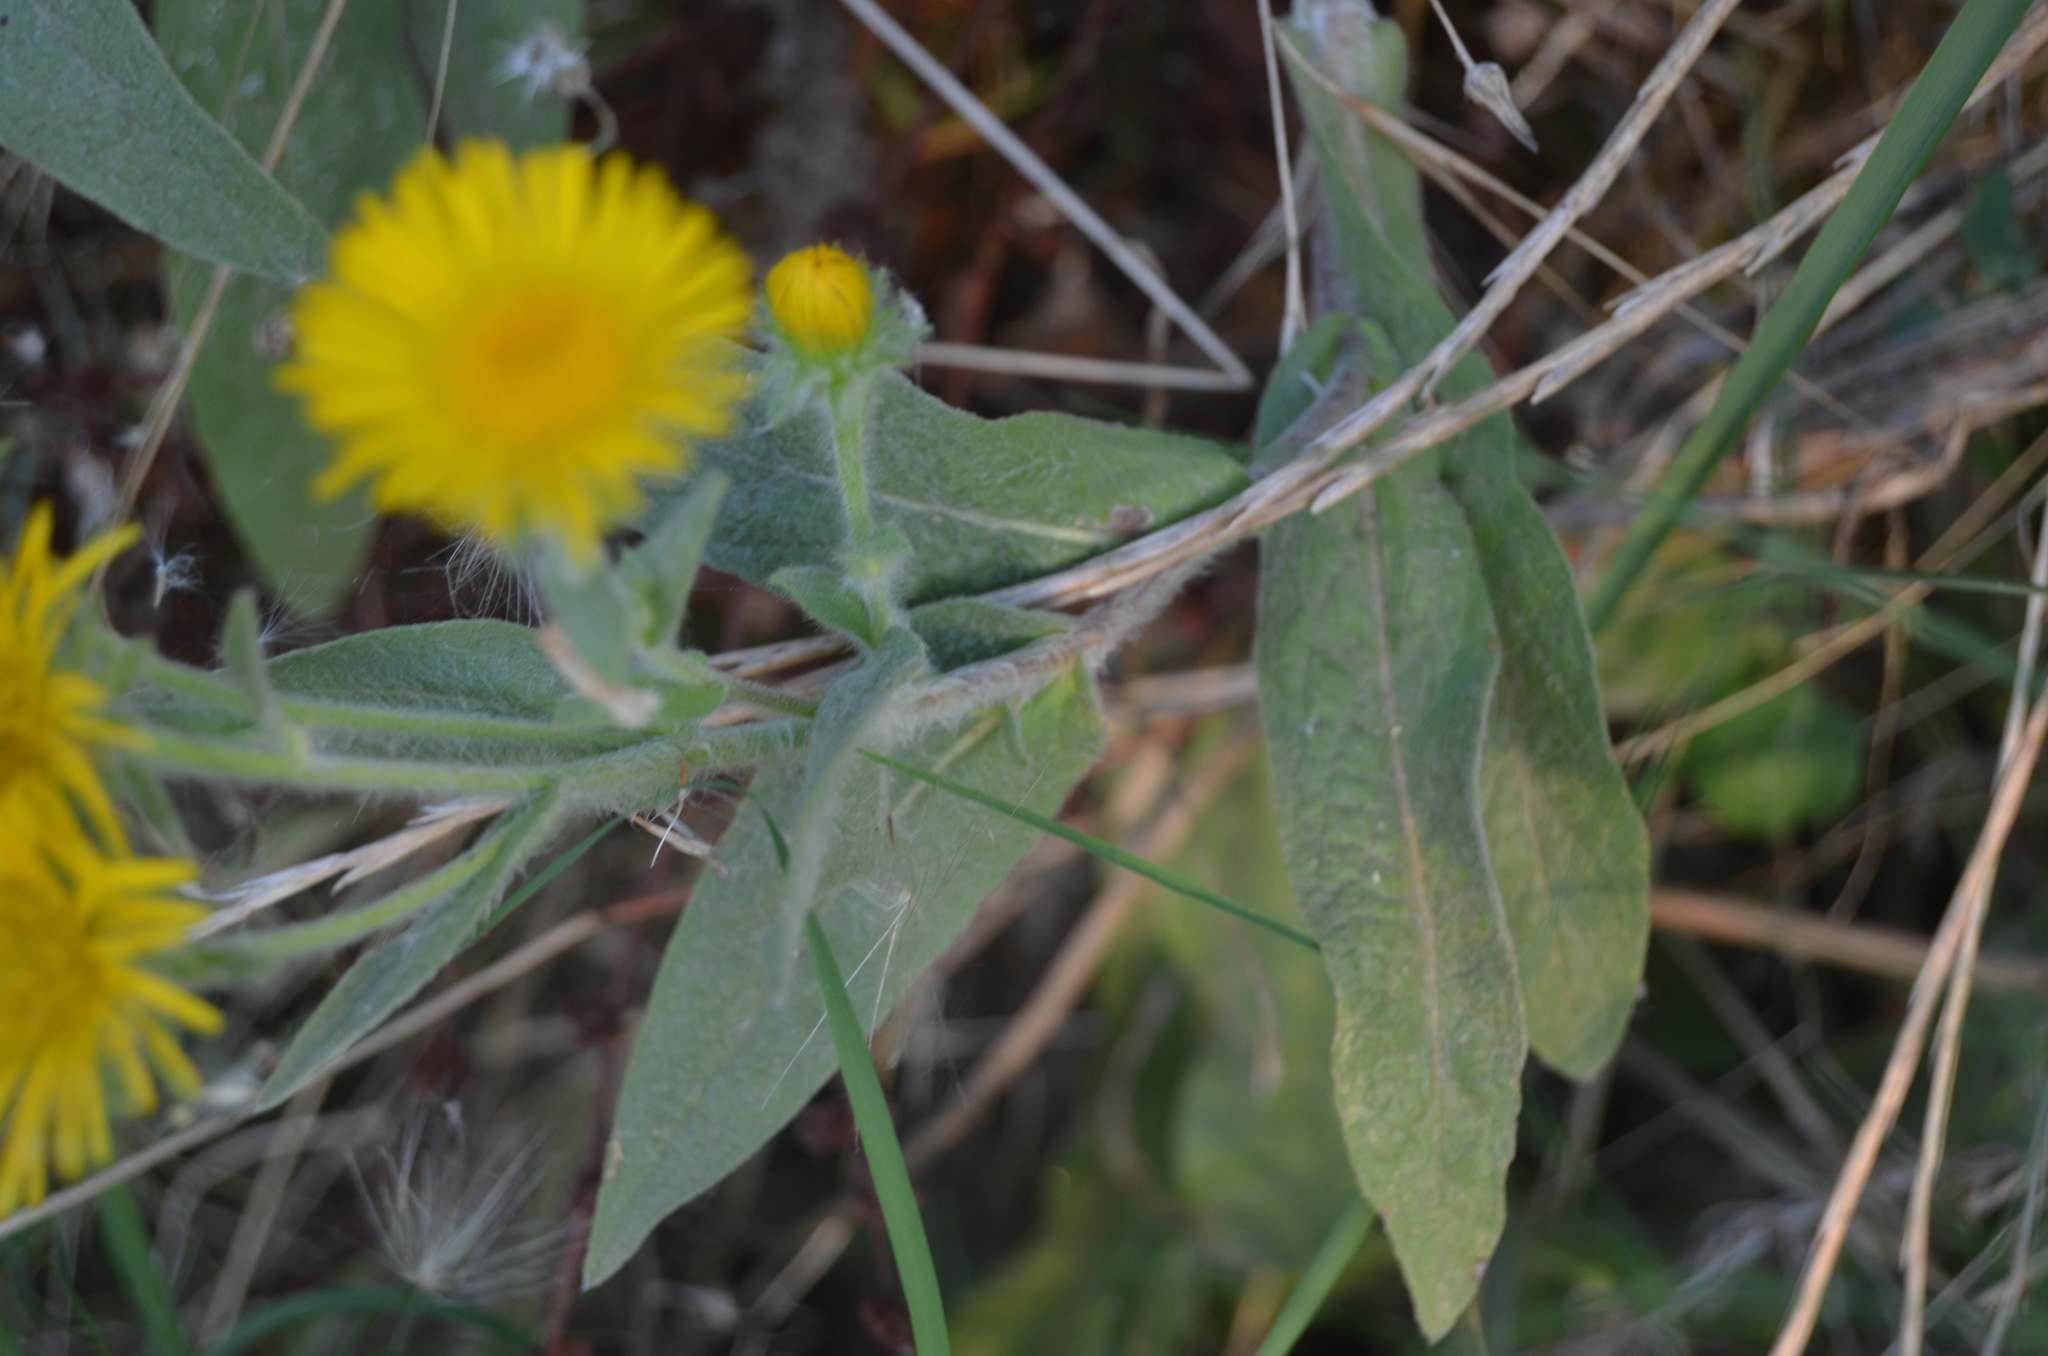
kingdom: Plantae
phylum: Tracheophyta
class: Magnoliopsida
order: Asterales
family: Asteraceae
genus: Pentanema
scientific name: Pentanema helenioides
